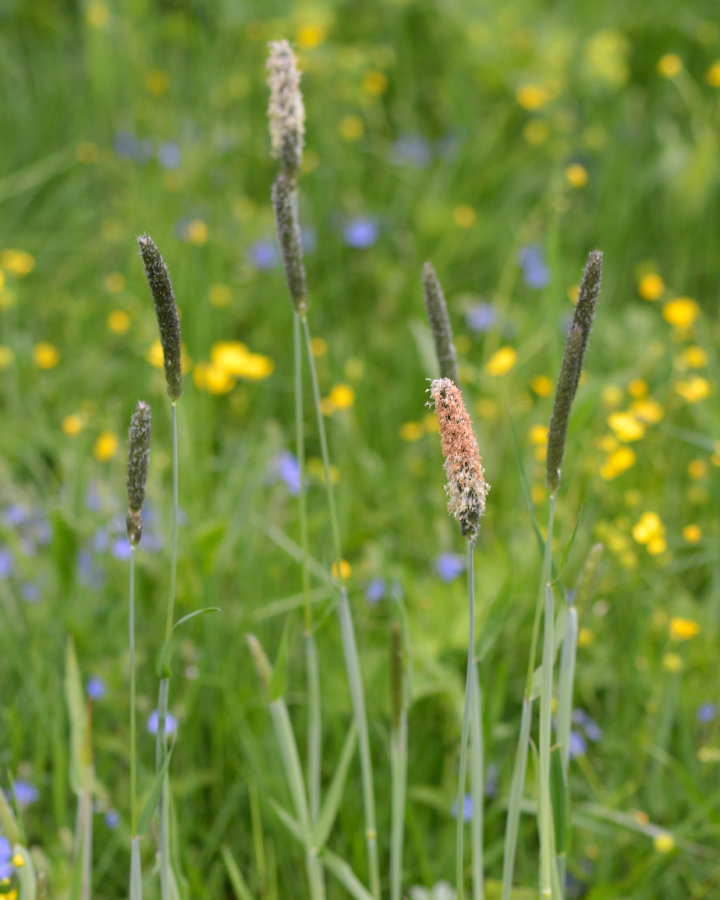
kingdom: Plantae
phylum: Tracheophyta
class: Liliopsida
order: Poales
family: Poaceae
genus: Alopecurus
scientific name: Alopecurus pratensis
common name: Meadow foxtail
